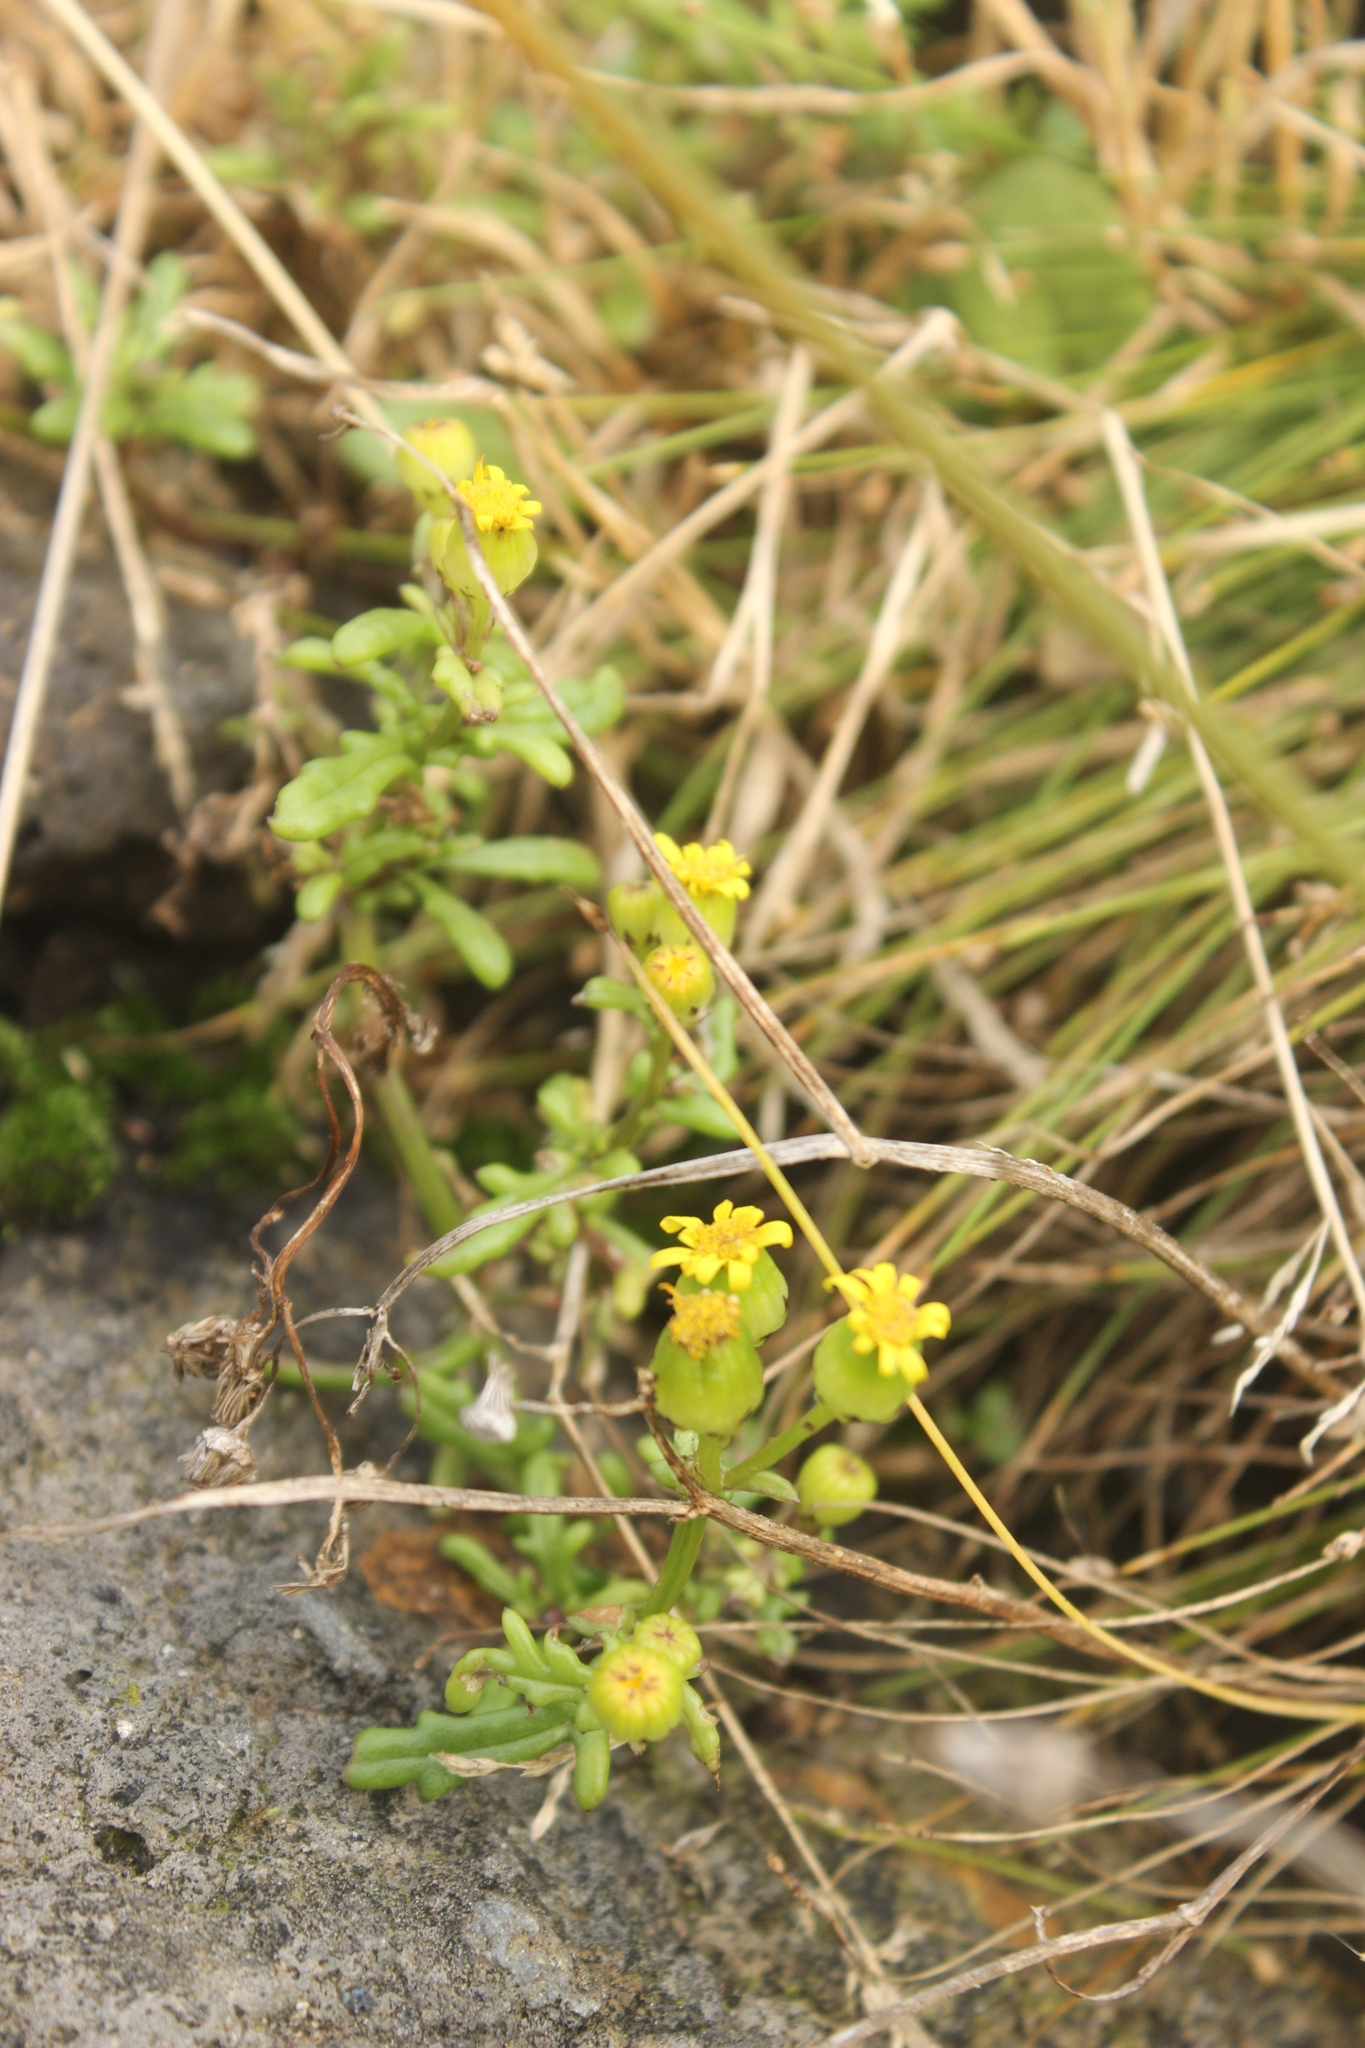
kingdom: Plantae
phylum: Tracheophyta
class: Magnoliopsida
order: Asterales
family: Asteraceae
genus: Senecio
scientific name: Senecio lautus
